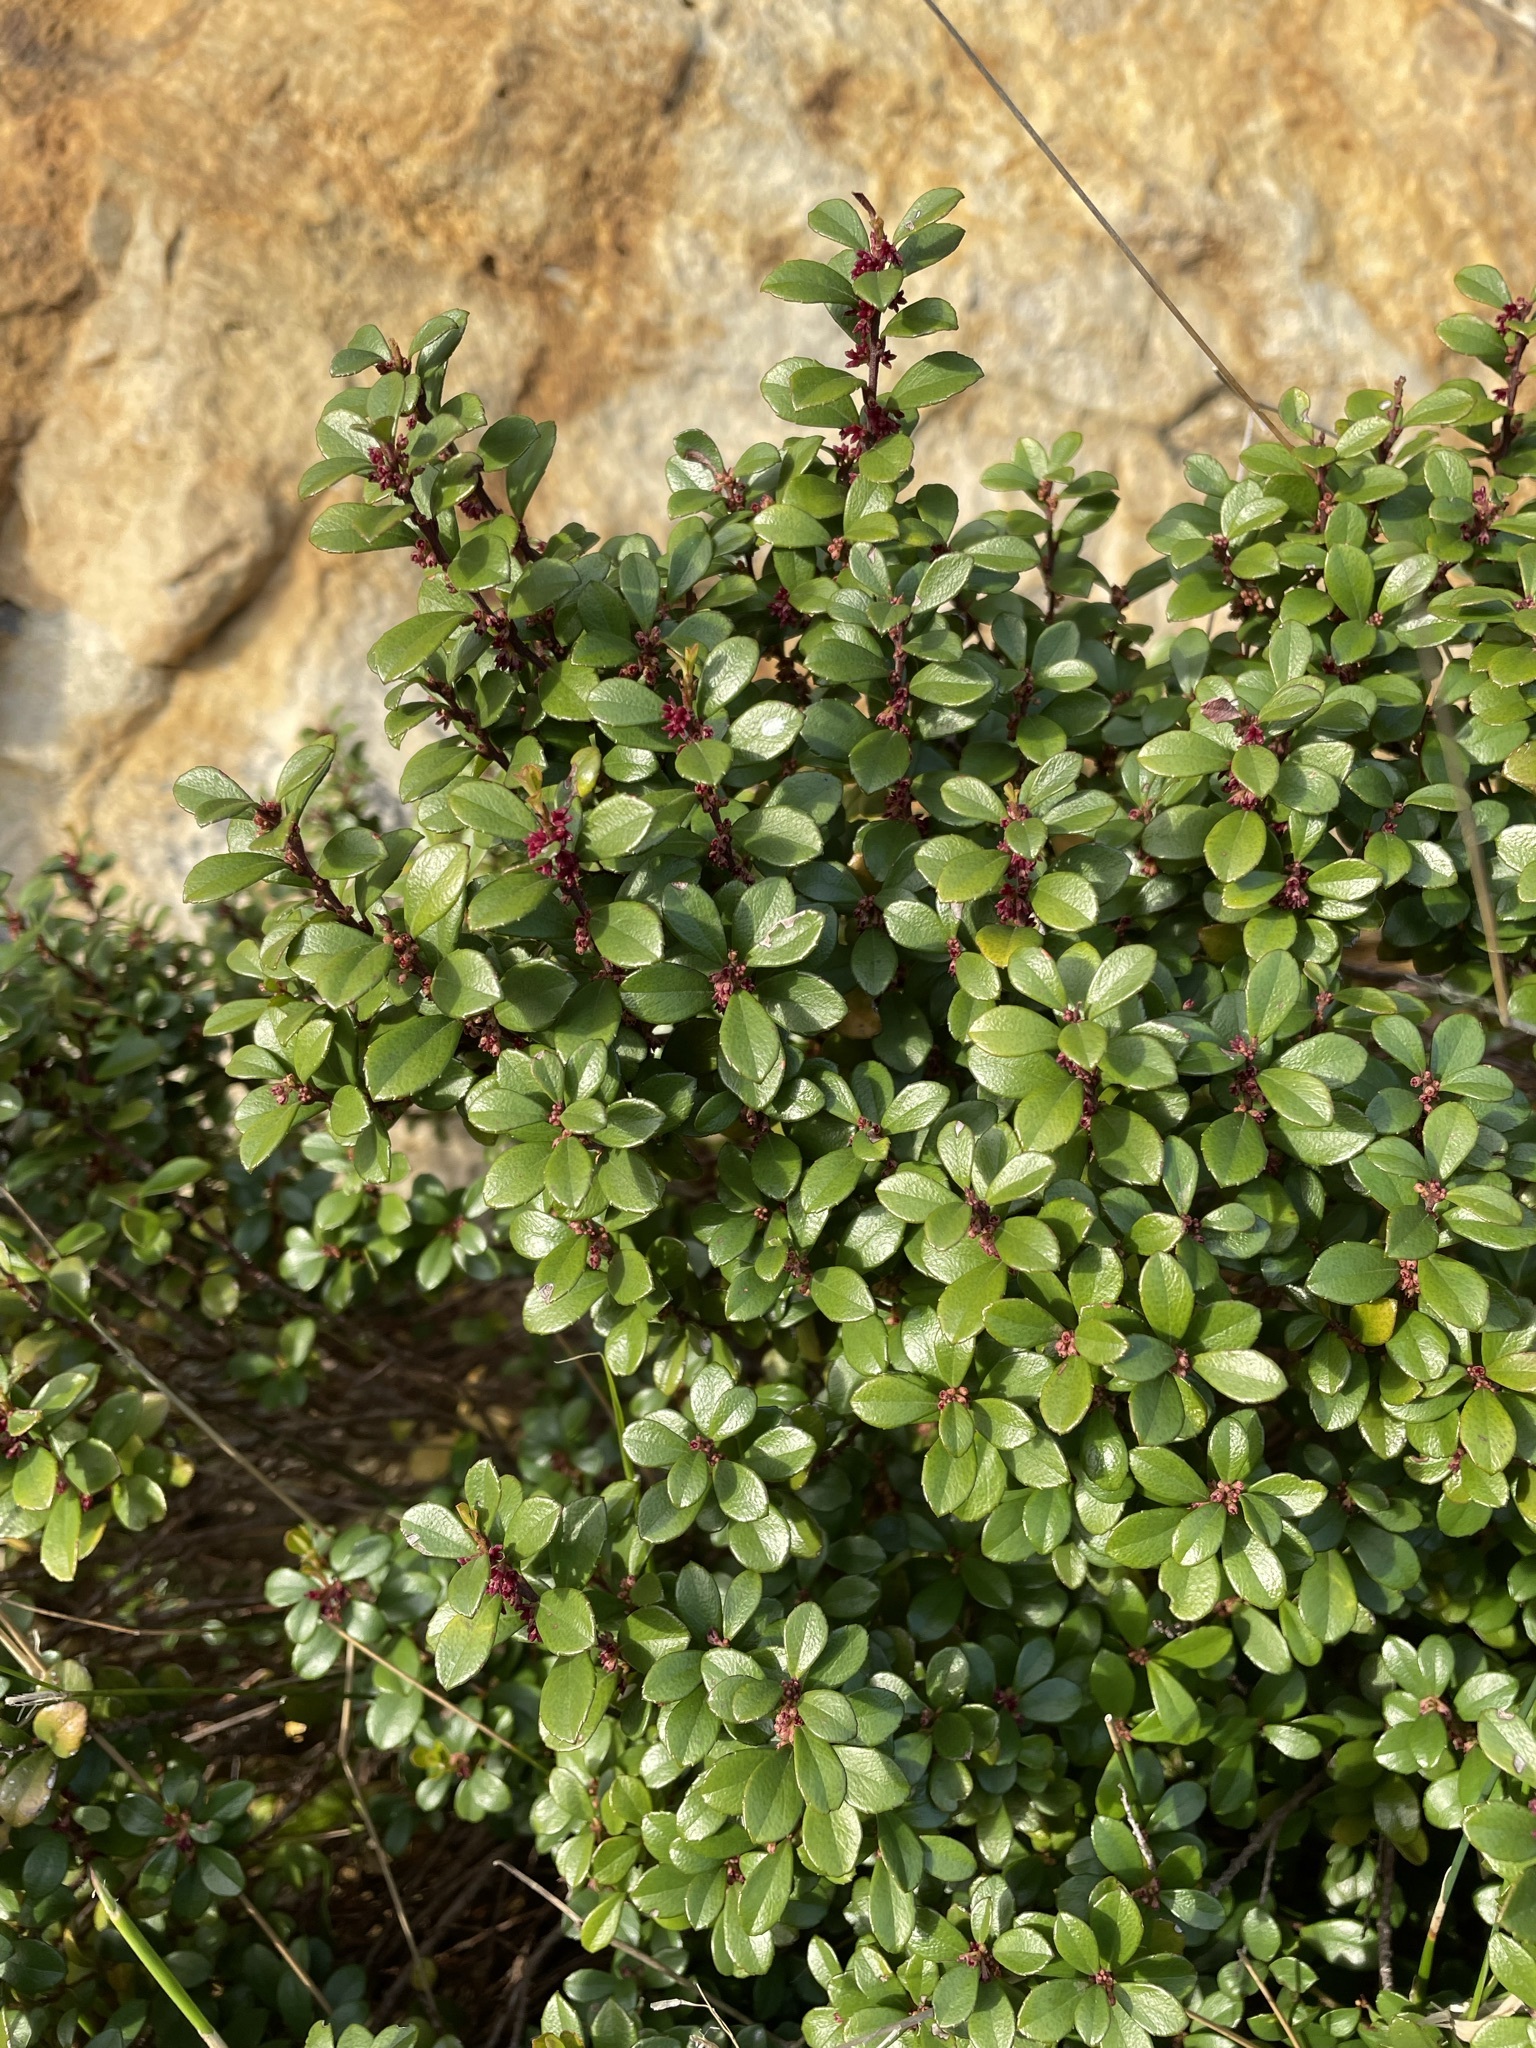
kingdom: Plantae
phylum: Tracheophyta
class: Magnoliopsida
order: Ericales
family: Primulaceae
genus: Myrsine
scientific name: Myrsine africana
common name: African-boxwood
